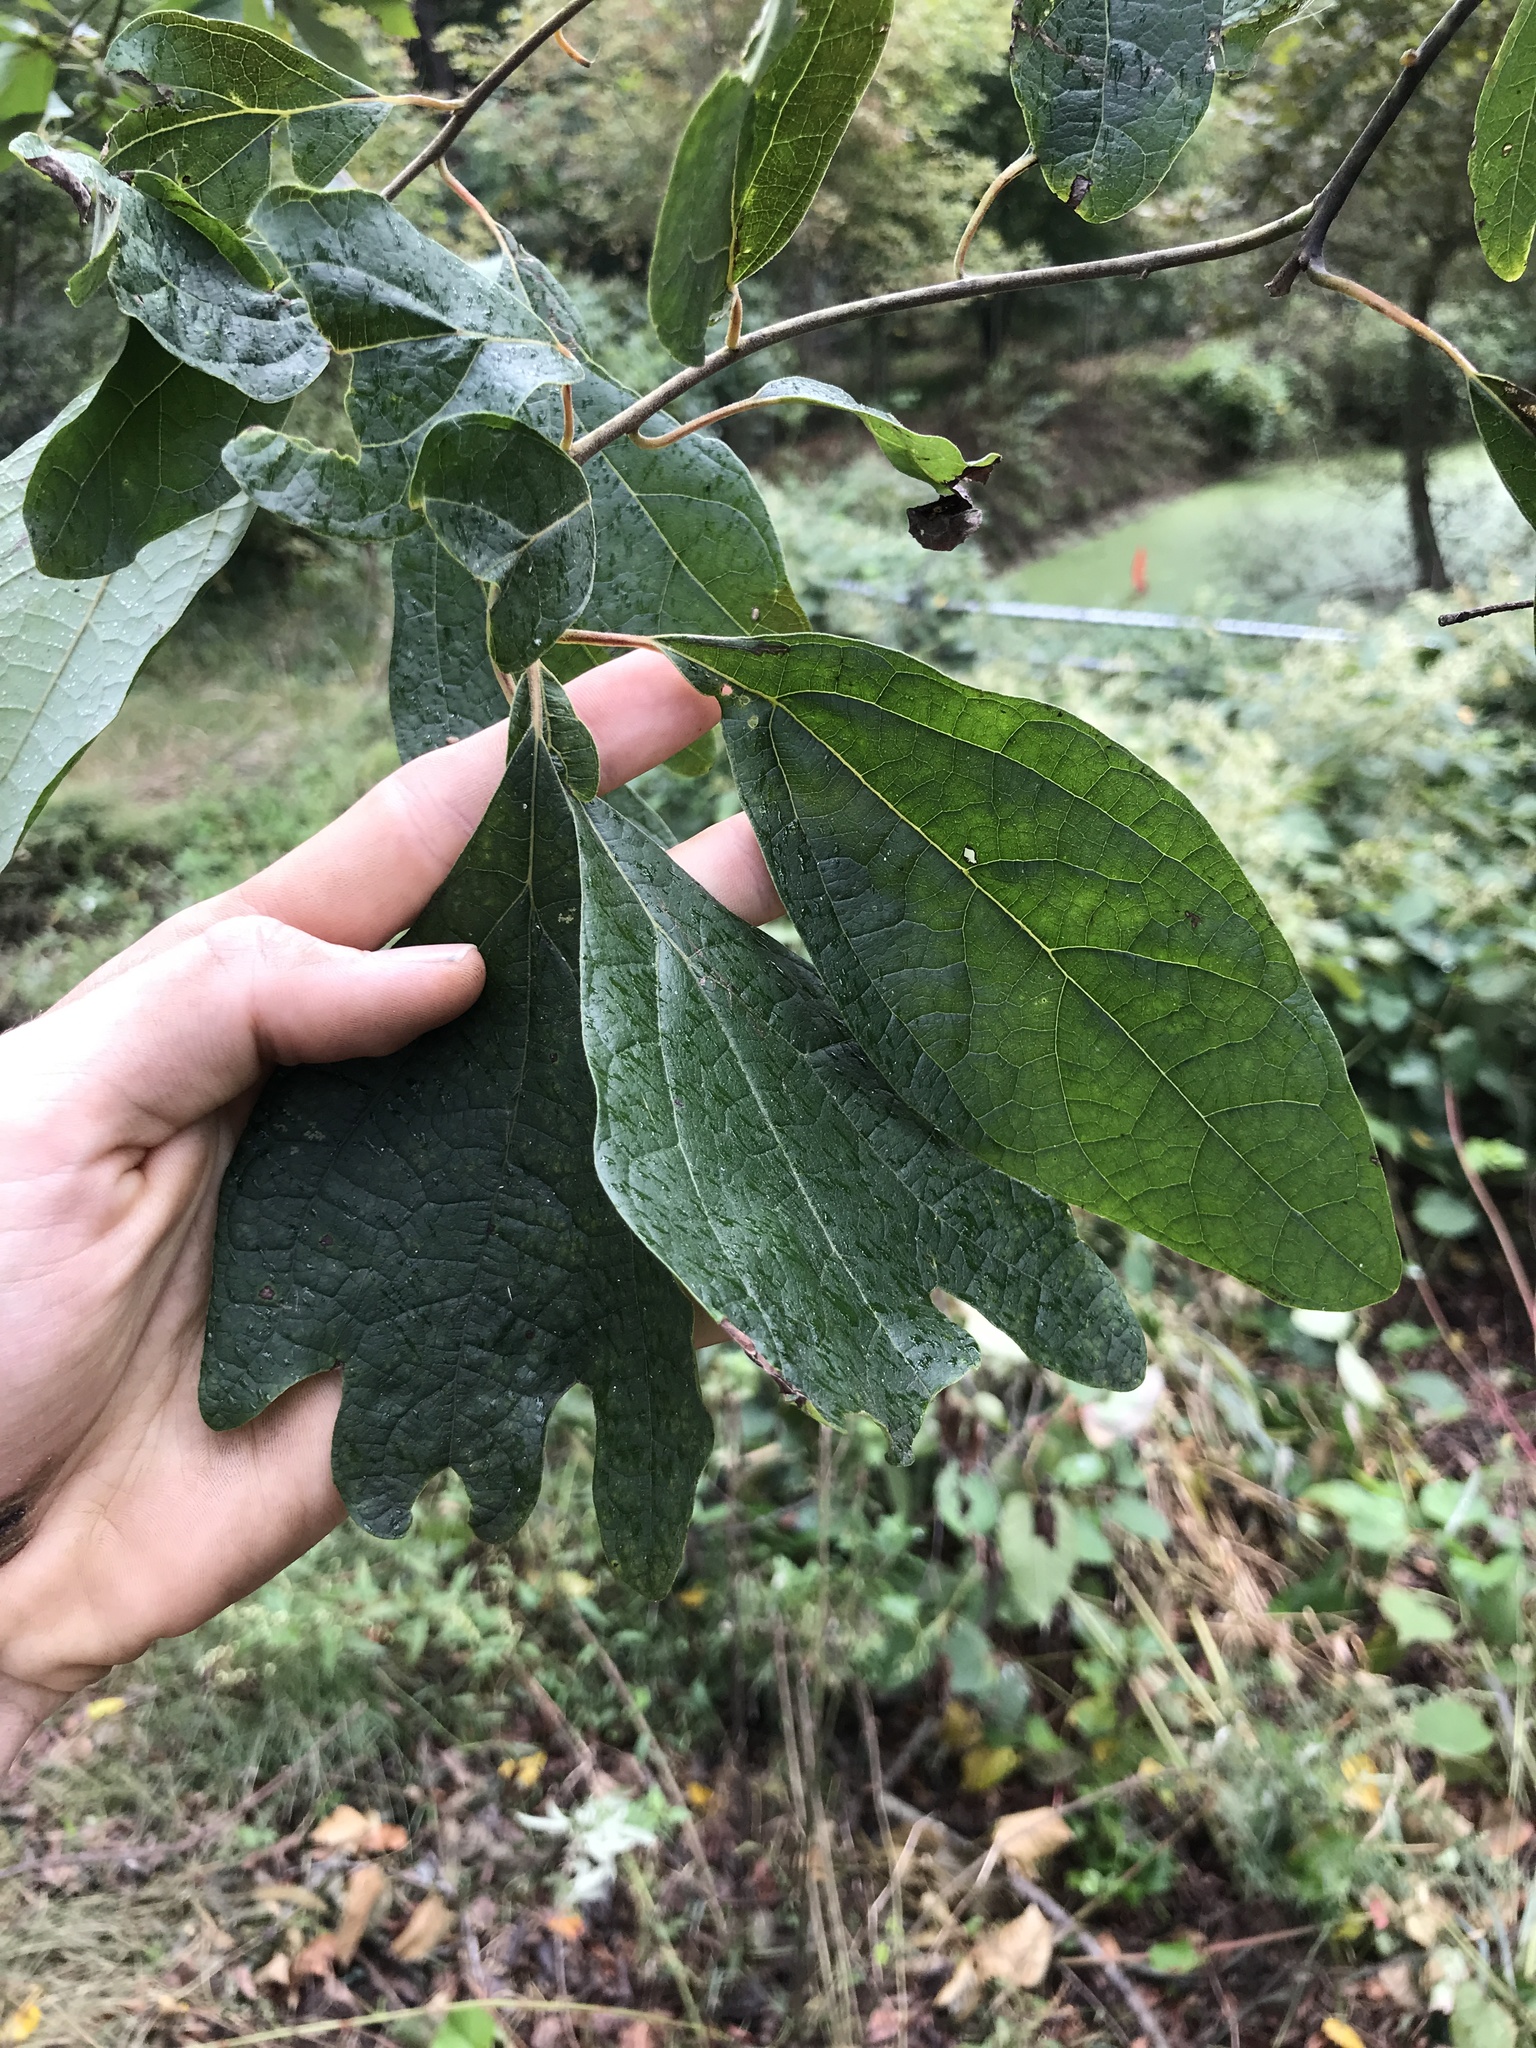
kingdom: Plantae
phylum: Tracheophyta
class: Magnoliopsida
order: Laurales
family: Lauraceae
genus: Sassafras
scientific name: Sassafras albidum
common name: Sassafras
